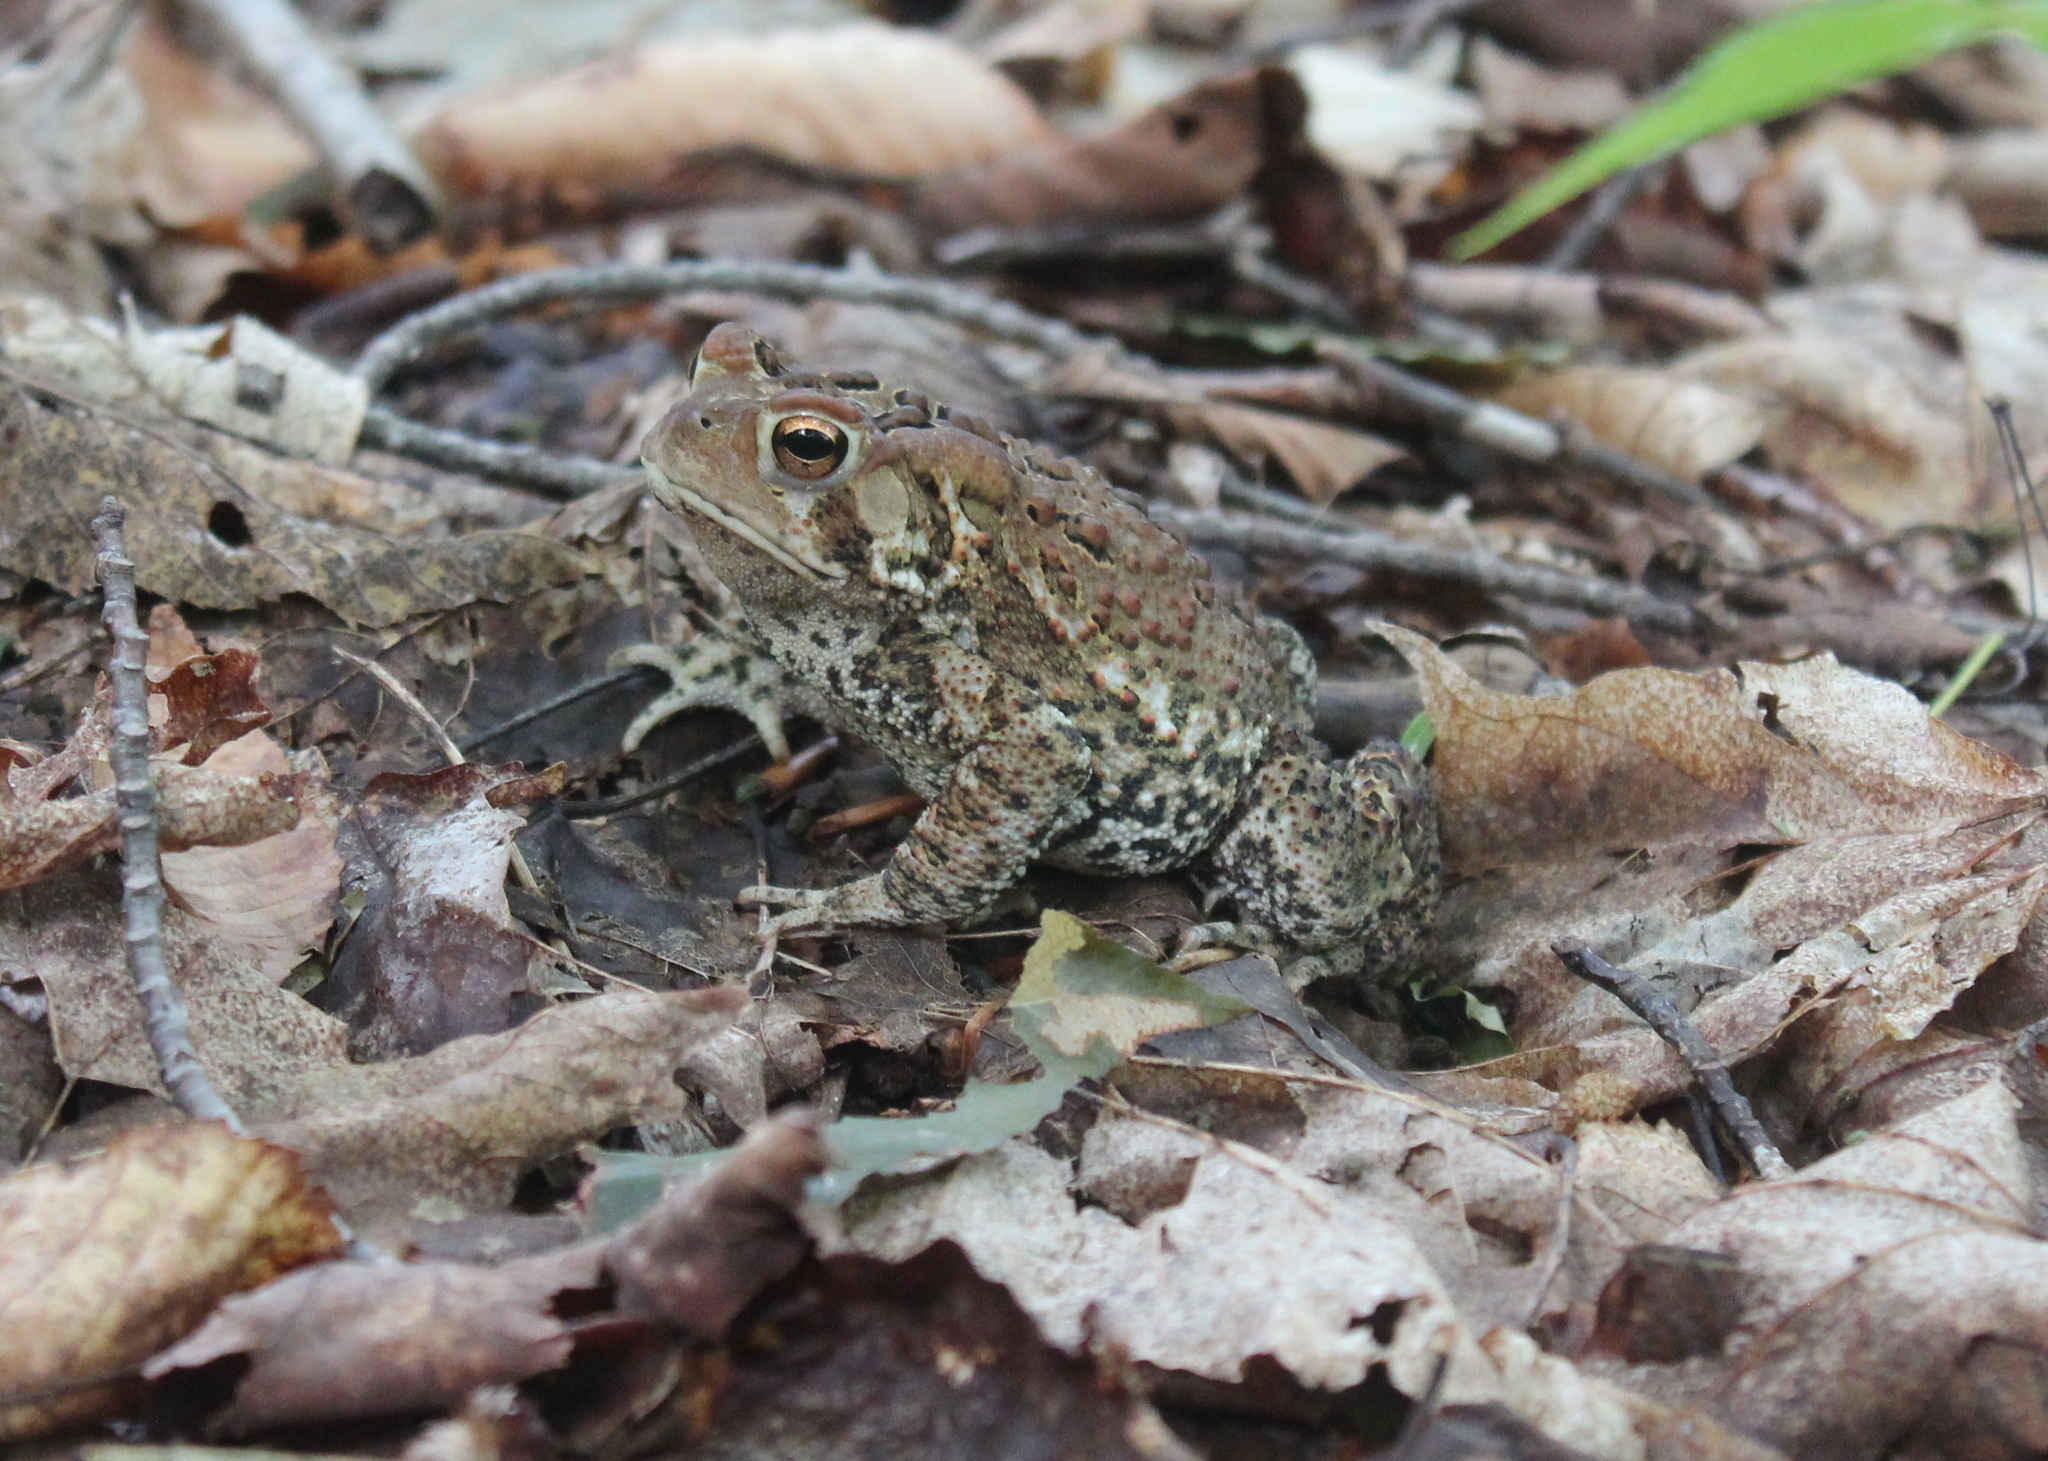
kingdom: Animalia
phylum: Chordata
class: Amphibia
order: Anura
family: Bufonidae
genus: Anaxyrus
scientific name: Anaxyrus americanus
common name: American toad
